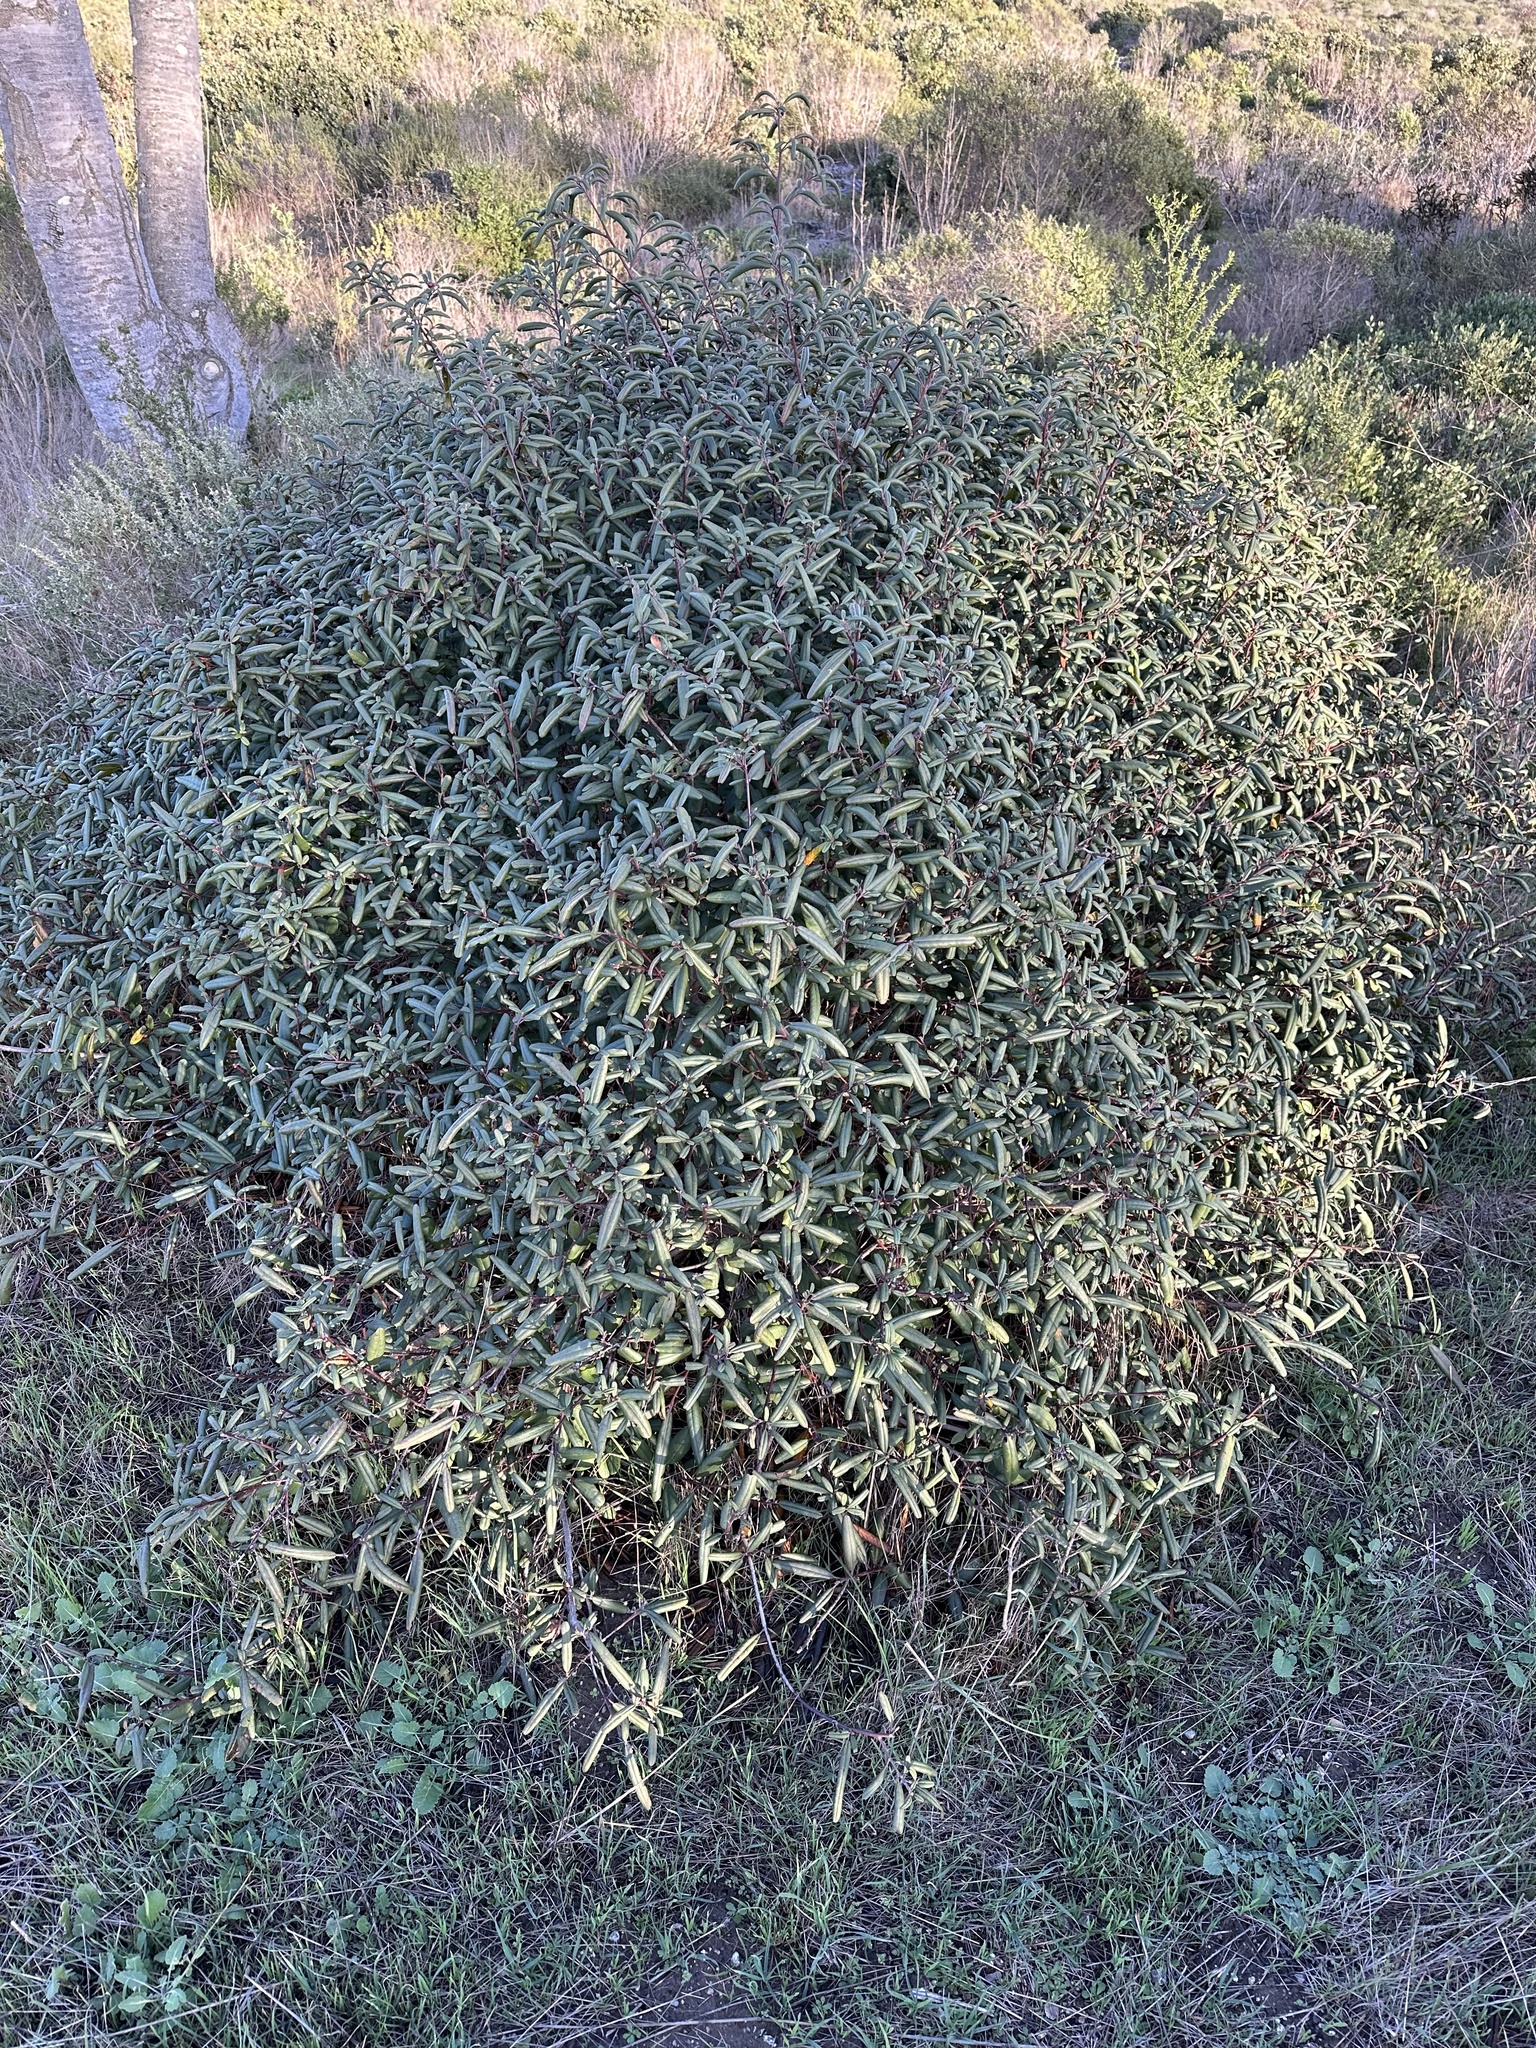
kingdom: Plantae
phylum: Tracheophyta
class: Magnoliopsida
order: Rosales
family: Rhamnaceae
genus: Frangula
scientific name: Frangula californica
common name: California buckthorn
